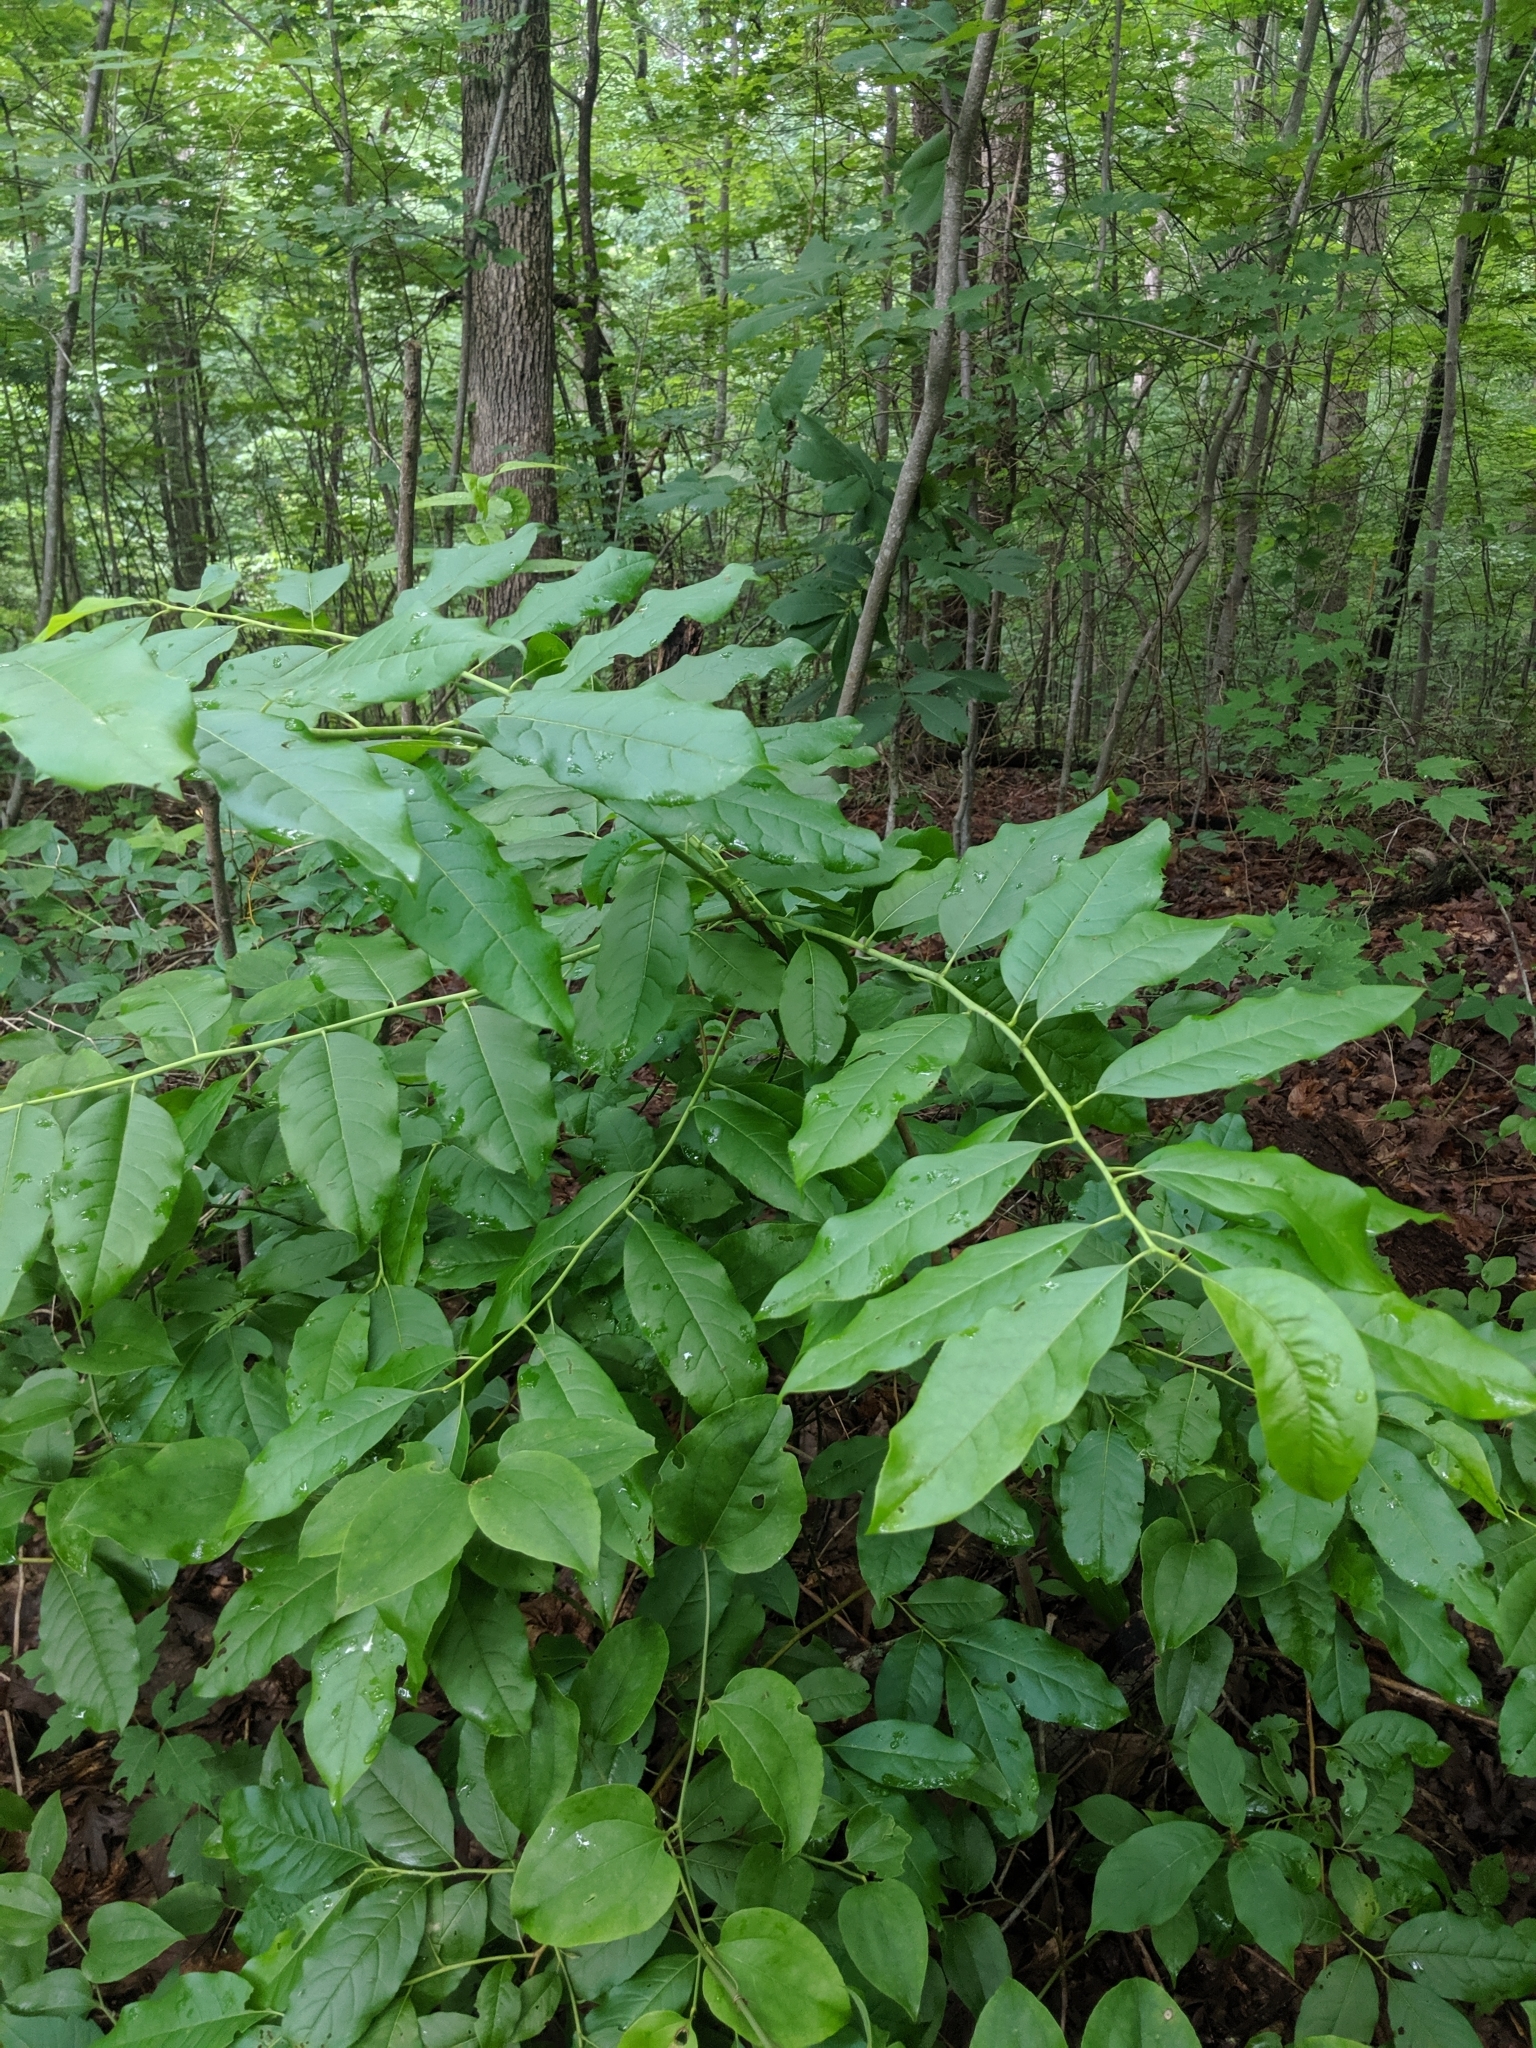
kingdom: Plantae
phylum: Tracheophyta
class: Magnoliopsida
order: Ericales
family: Ericaceae
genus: Oxydendrum
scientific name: Oxydendrum arboreum
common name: Sourwood
